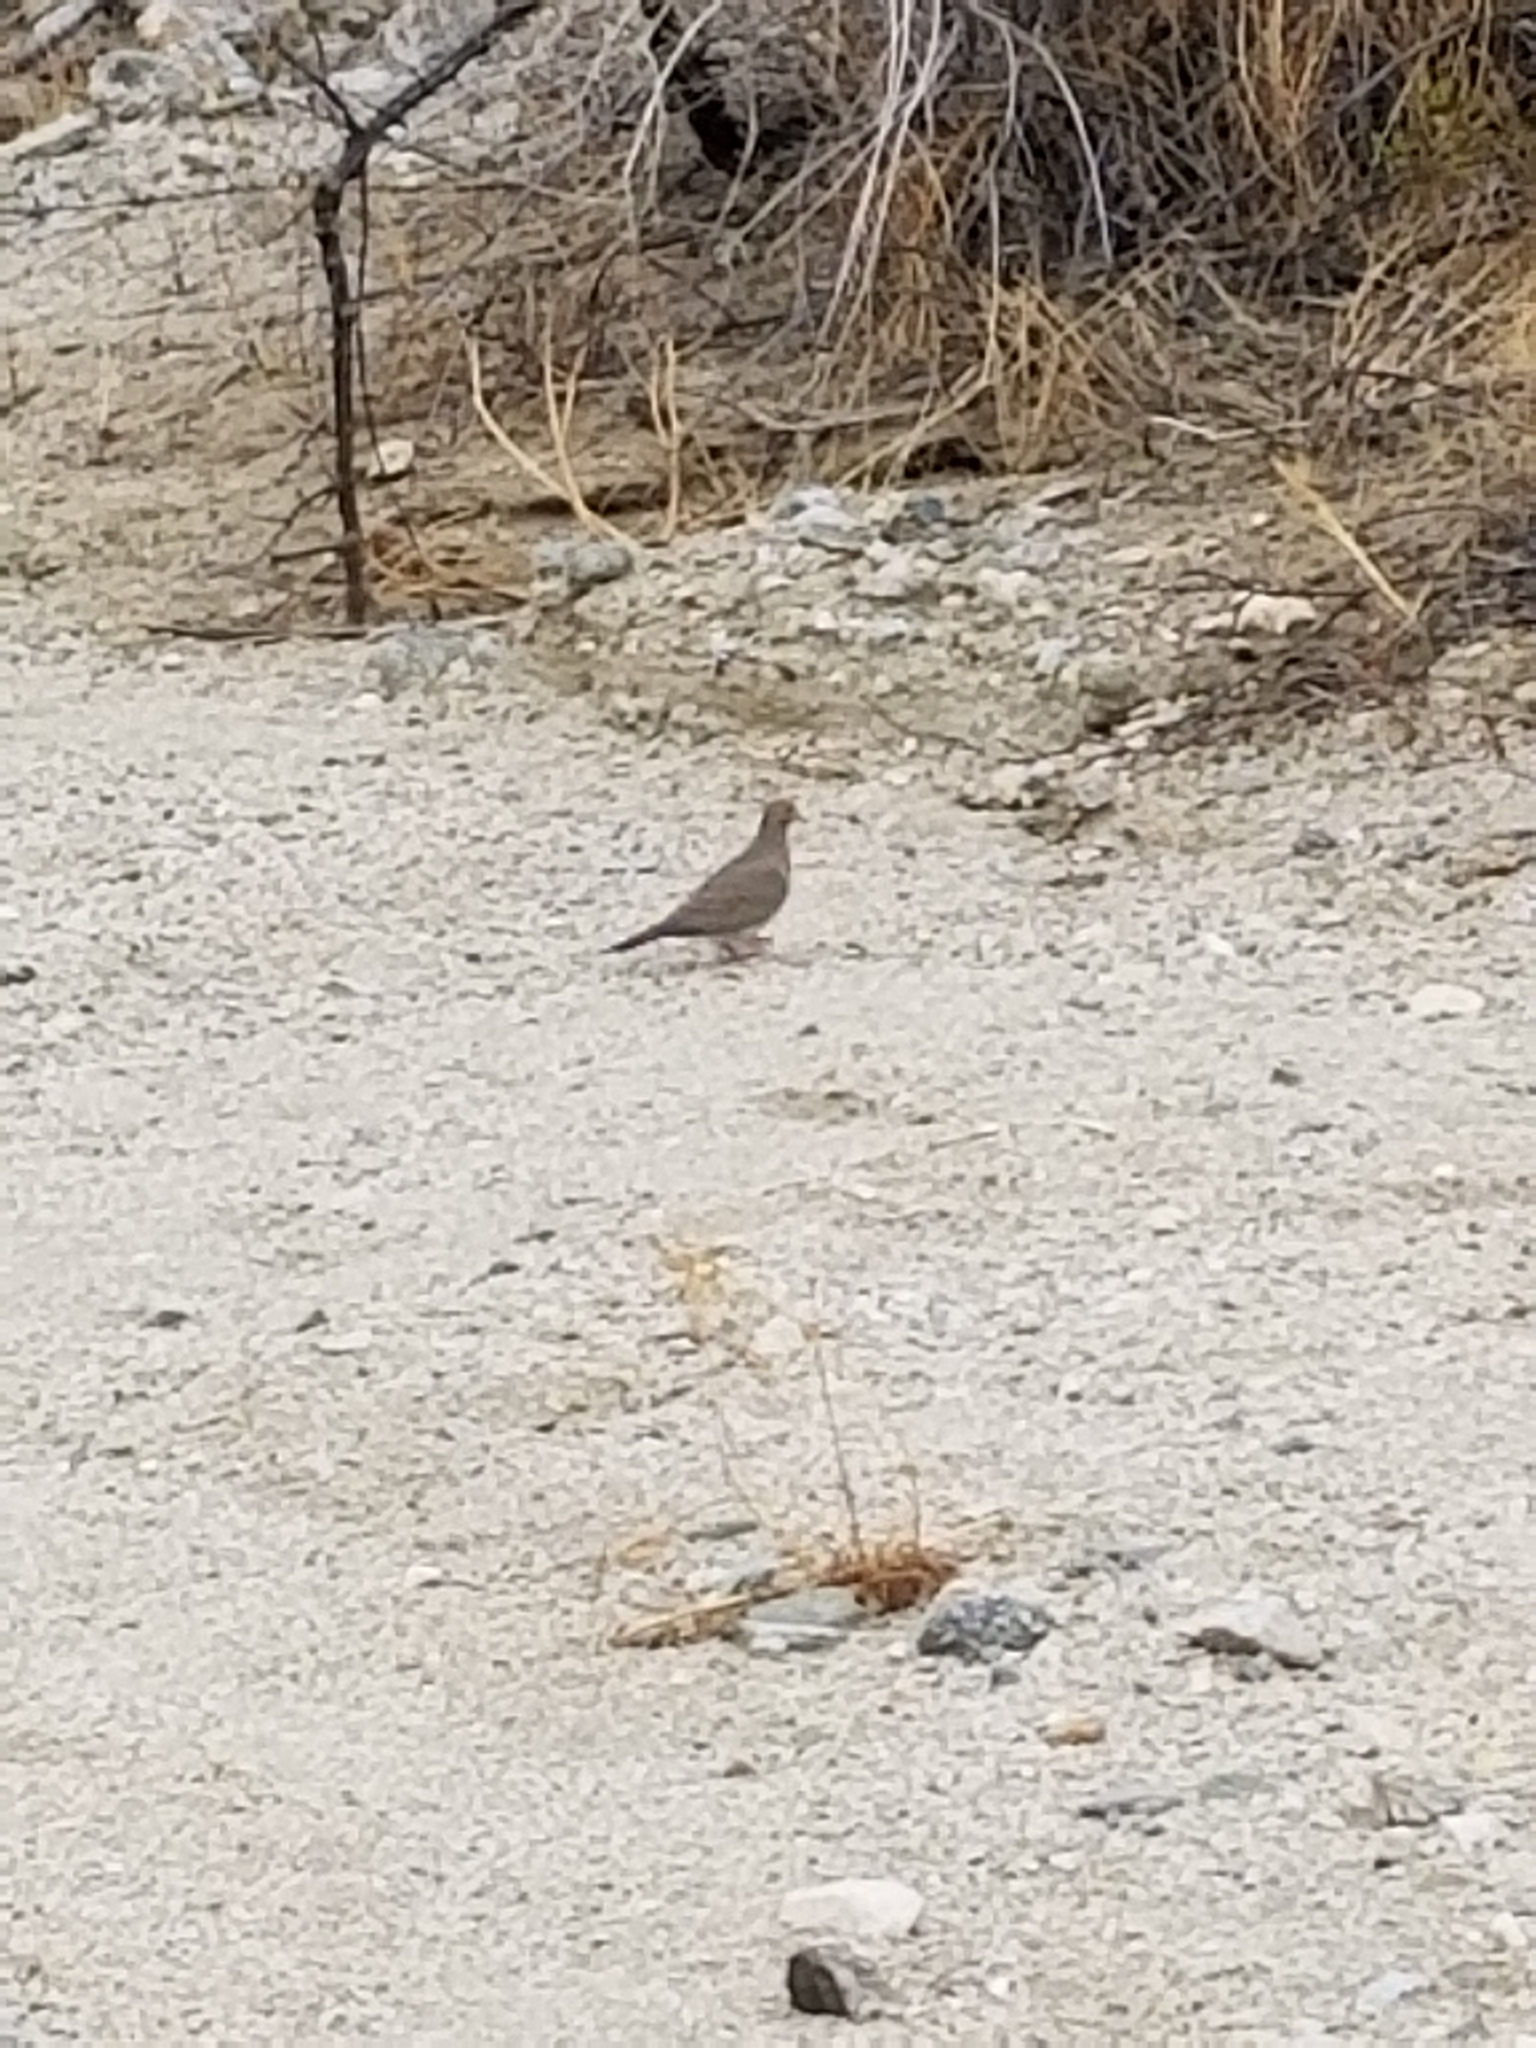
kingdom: Animalia
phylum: Chordata
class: Aves
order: Columbiformes
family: Columbidae
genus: Columbina
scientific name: Columbina passerina
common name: Common ground-dove
